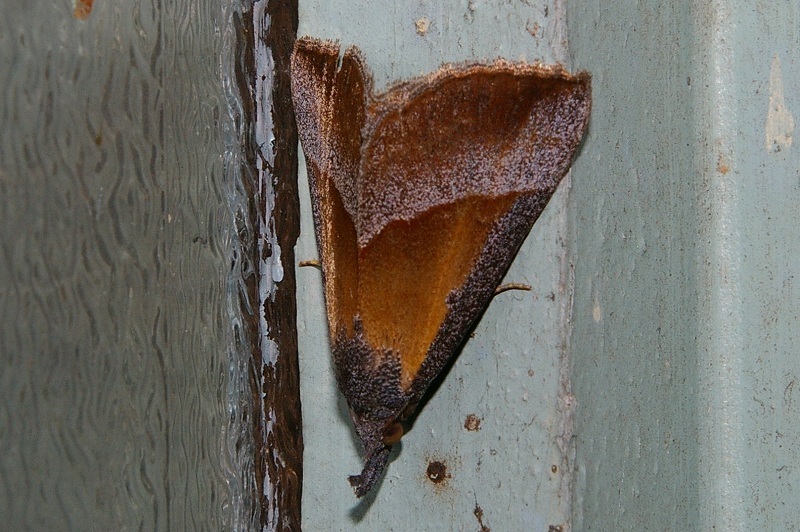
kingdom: Animalia
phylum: Arthropoda
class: Insecta
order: Lepidoptera
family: Erebidae
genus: Hypena
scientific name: Hypena claripennis
